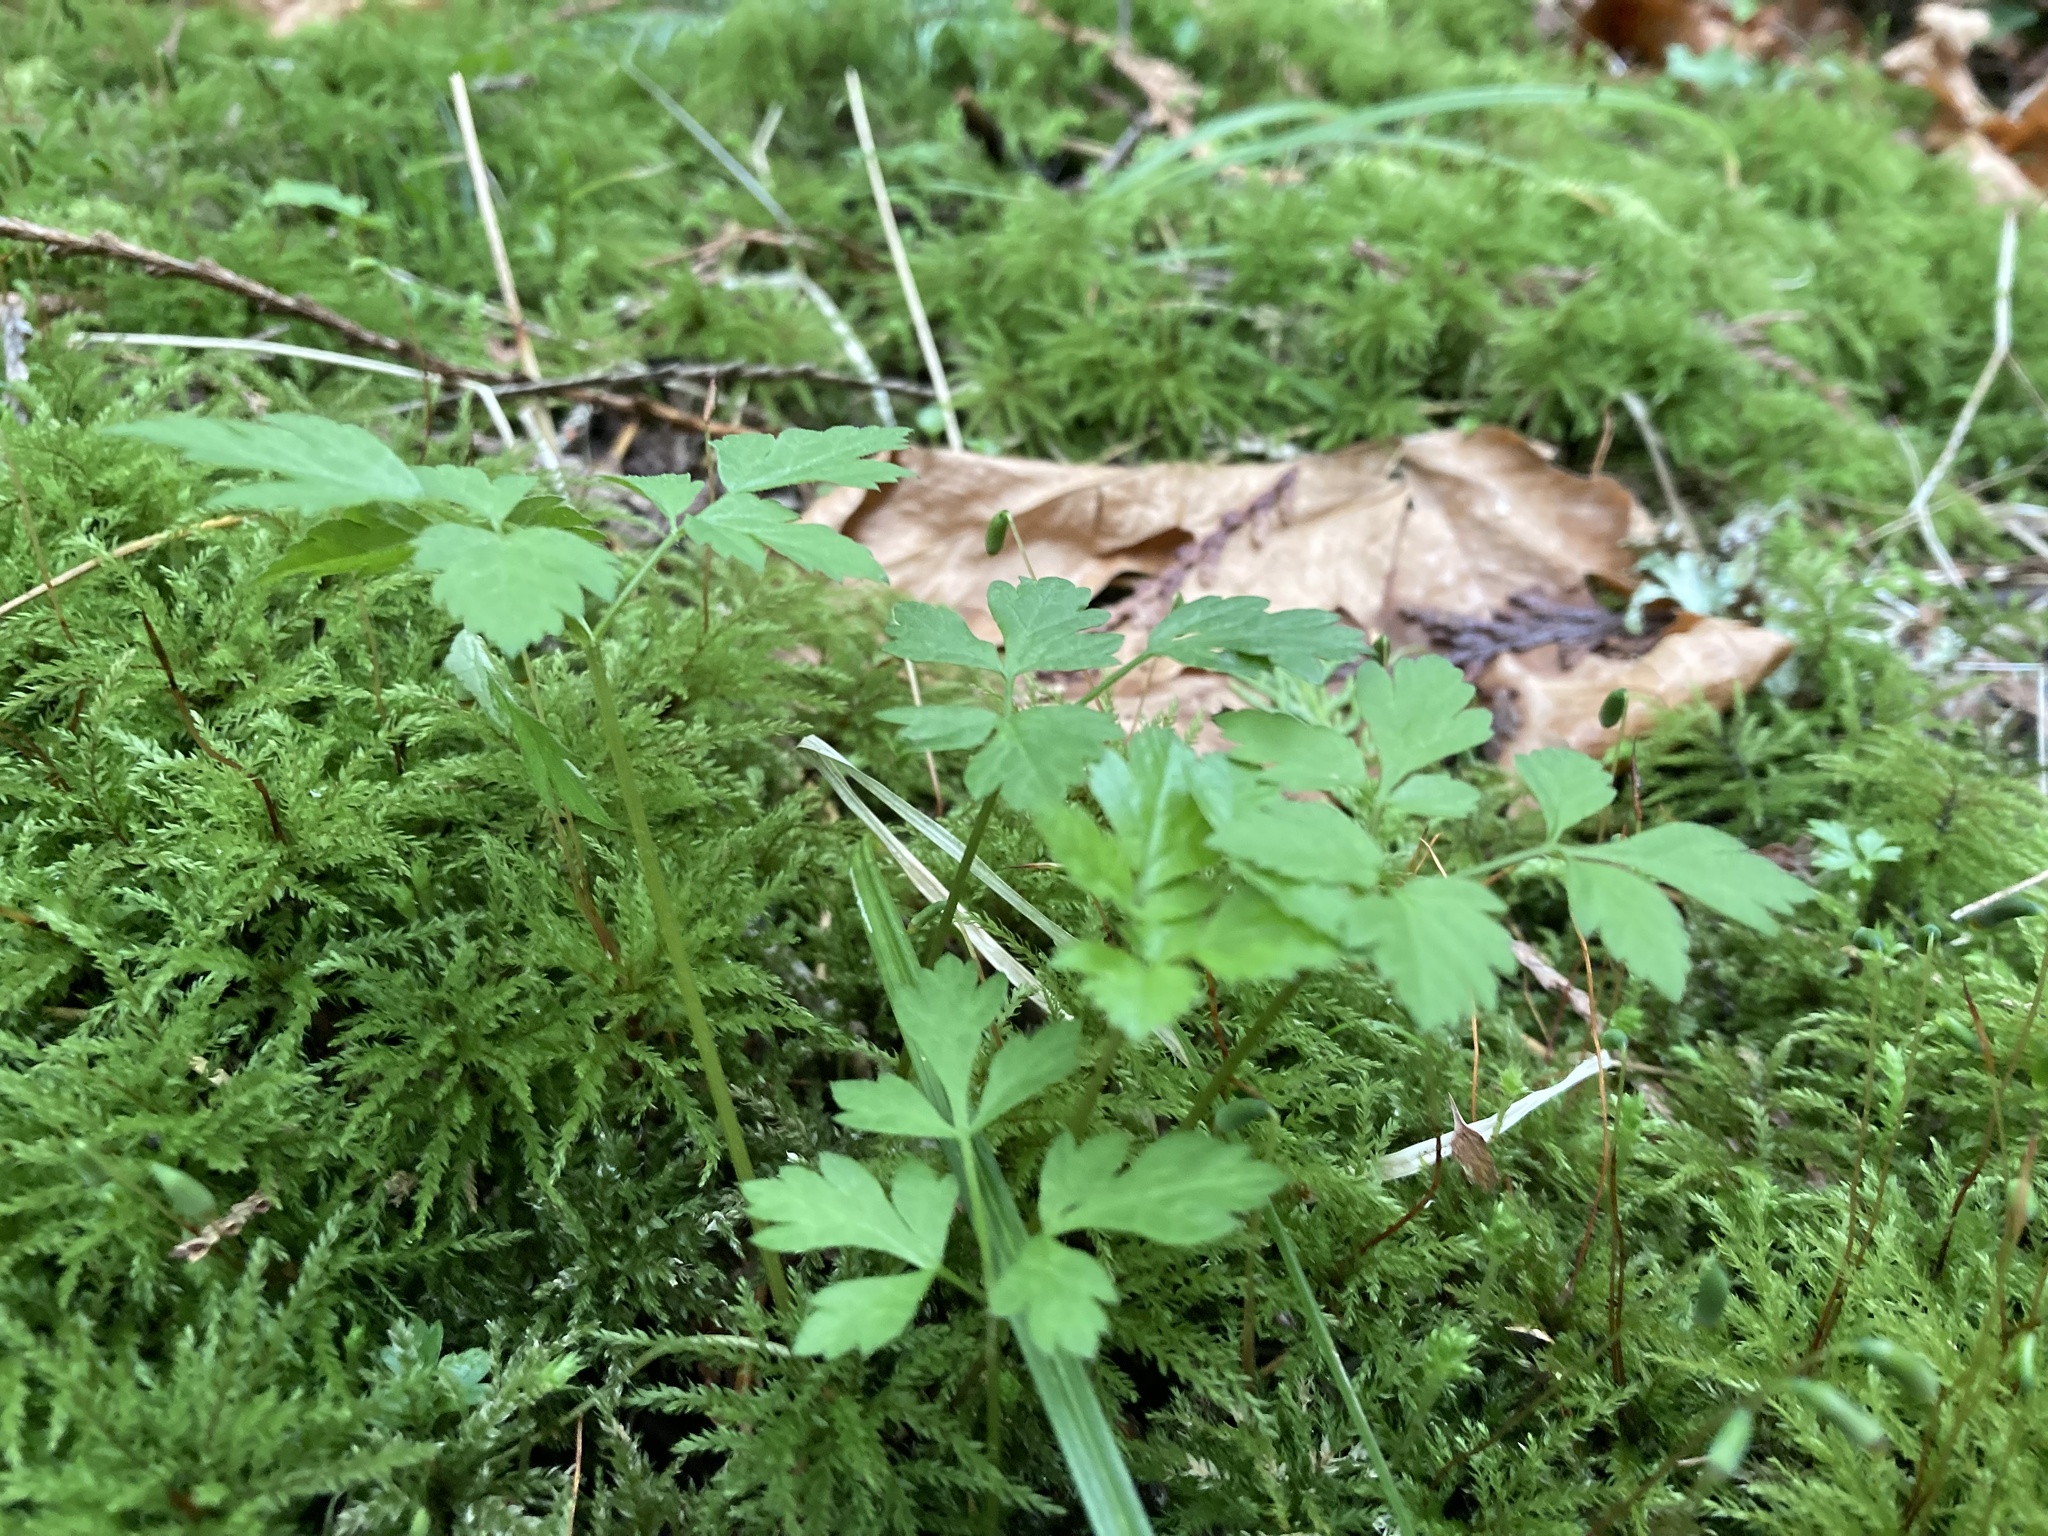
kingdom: Plantae
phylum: Tracheophyta
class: Magnoliopsida
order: Apiales
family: Apiaceae
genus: Osmorhiza
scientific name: Osmorhiza berteroi
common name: Mountain sweet cicely
